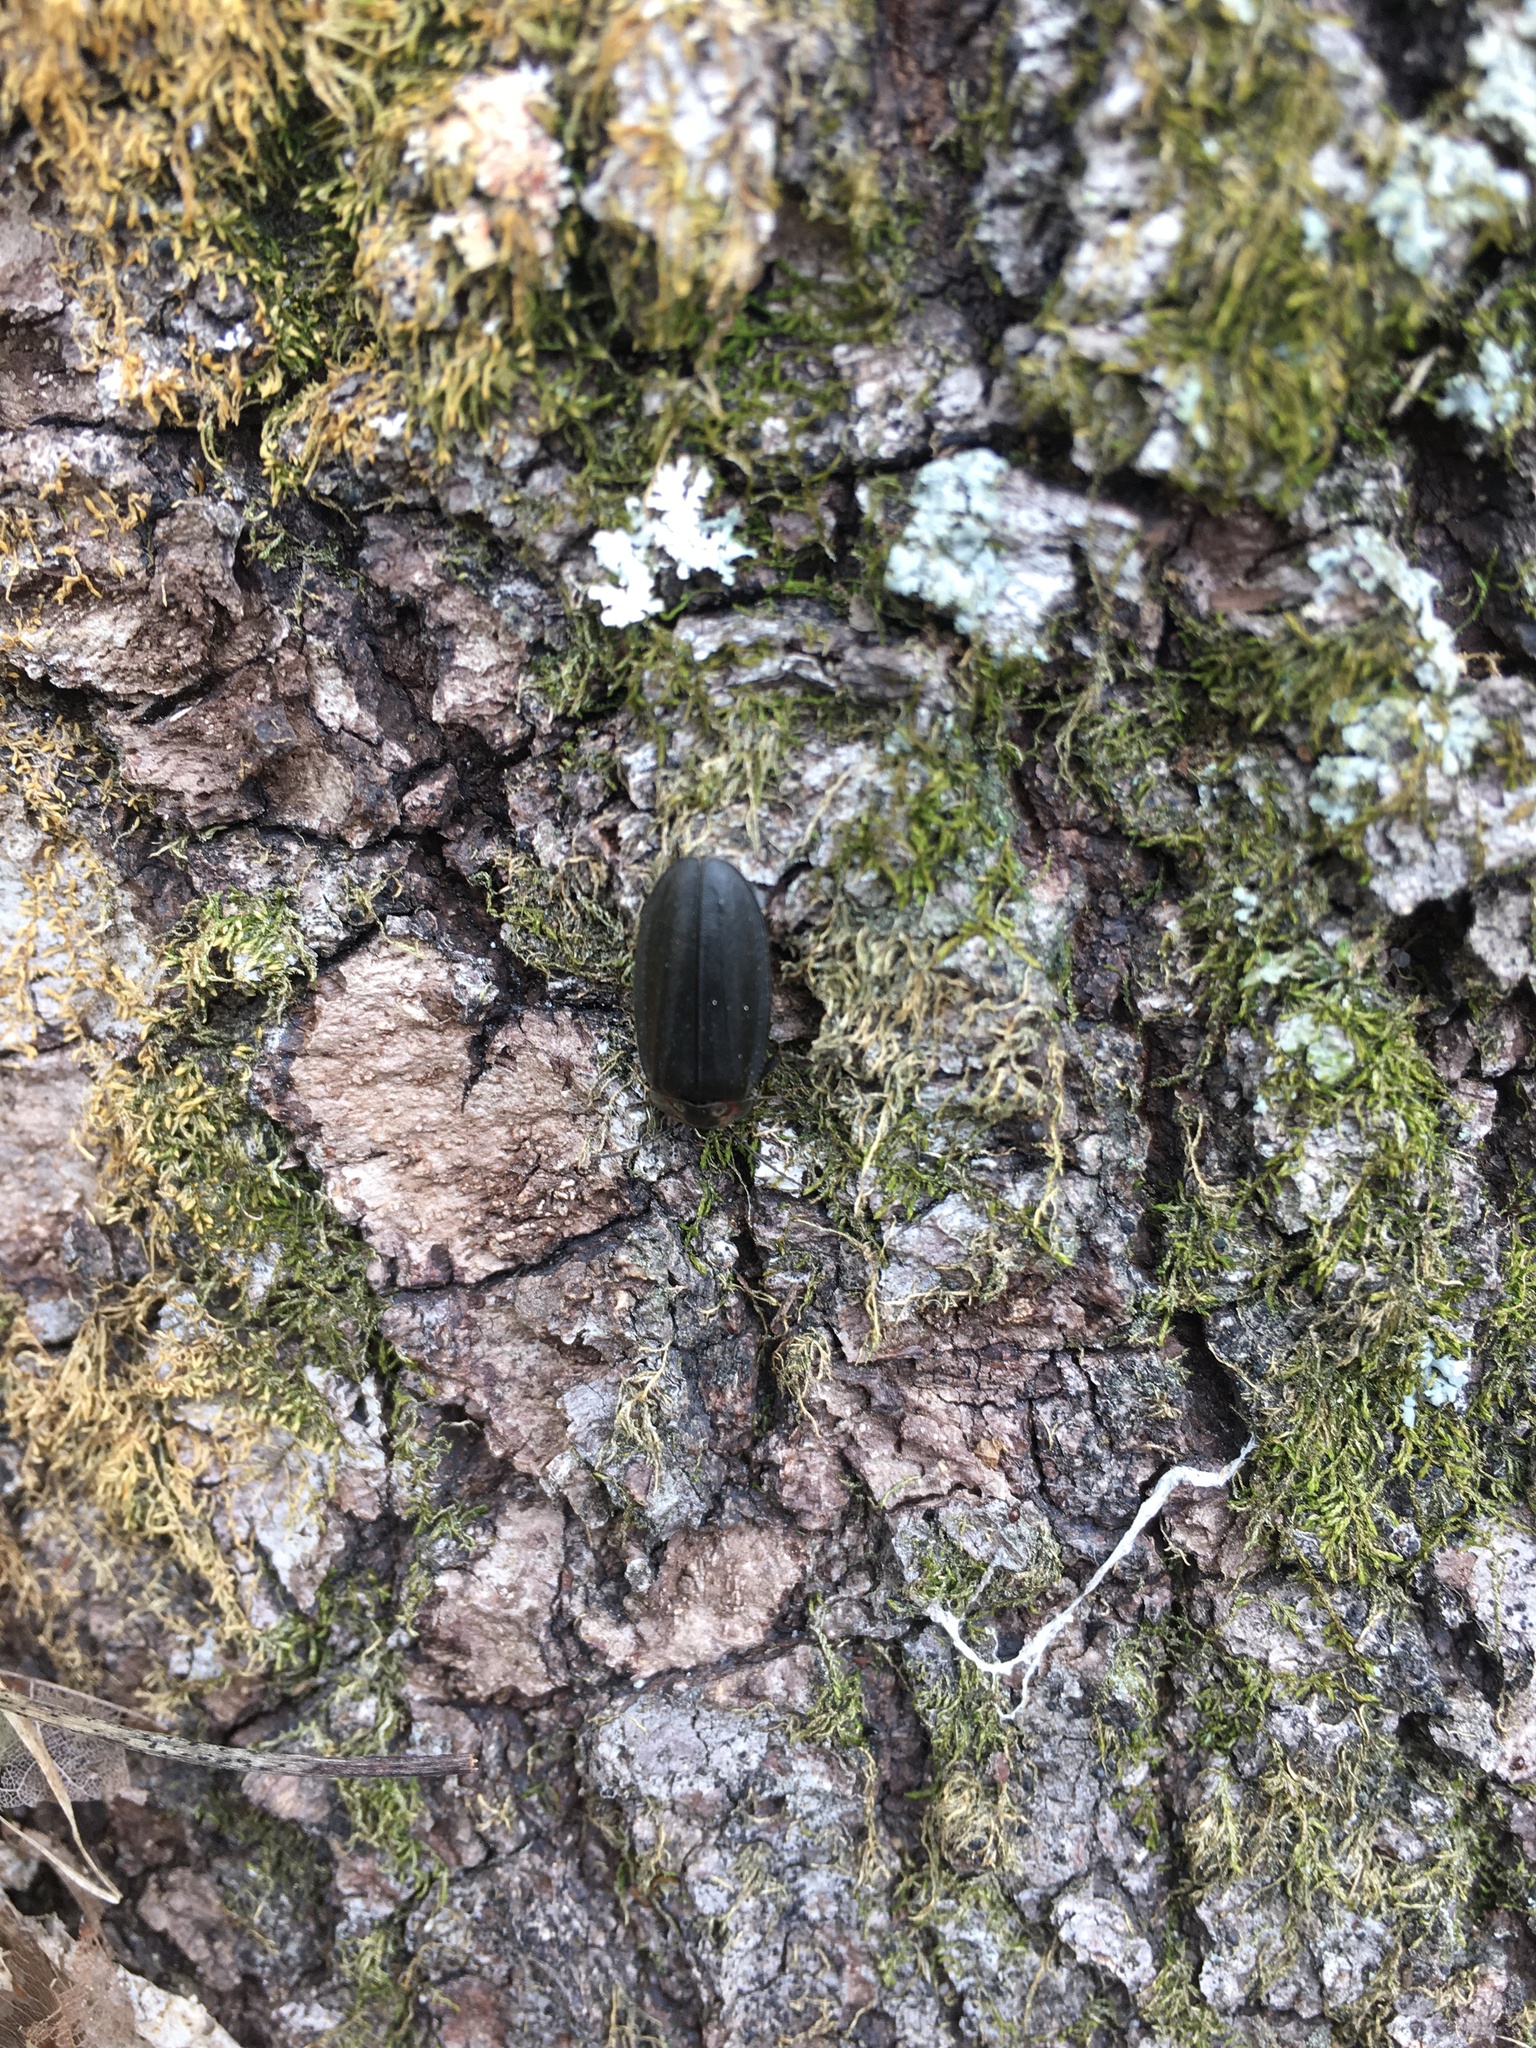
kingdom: Animalia
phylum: Arthropoda
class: Insecta
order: Coleoptera
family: Lampyridae
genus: Photinus
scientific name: Photinus corrusca
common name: Winter firefly
